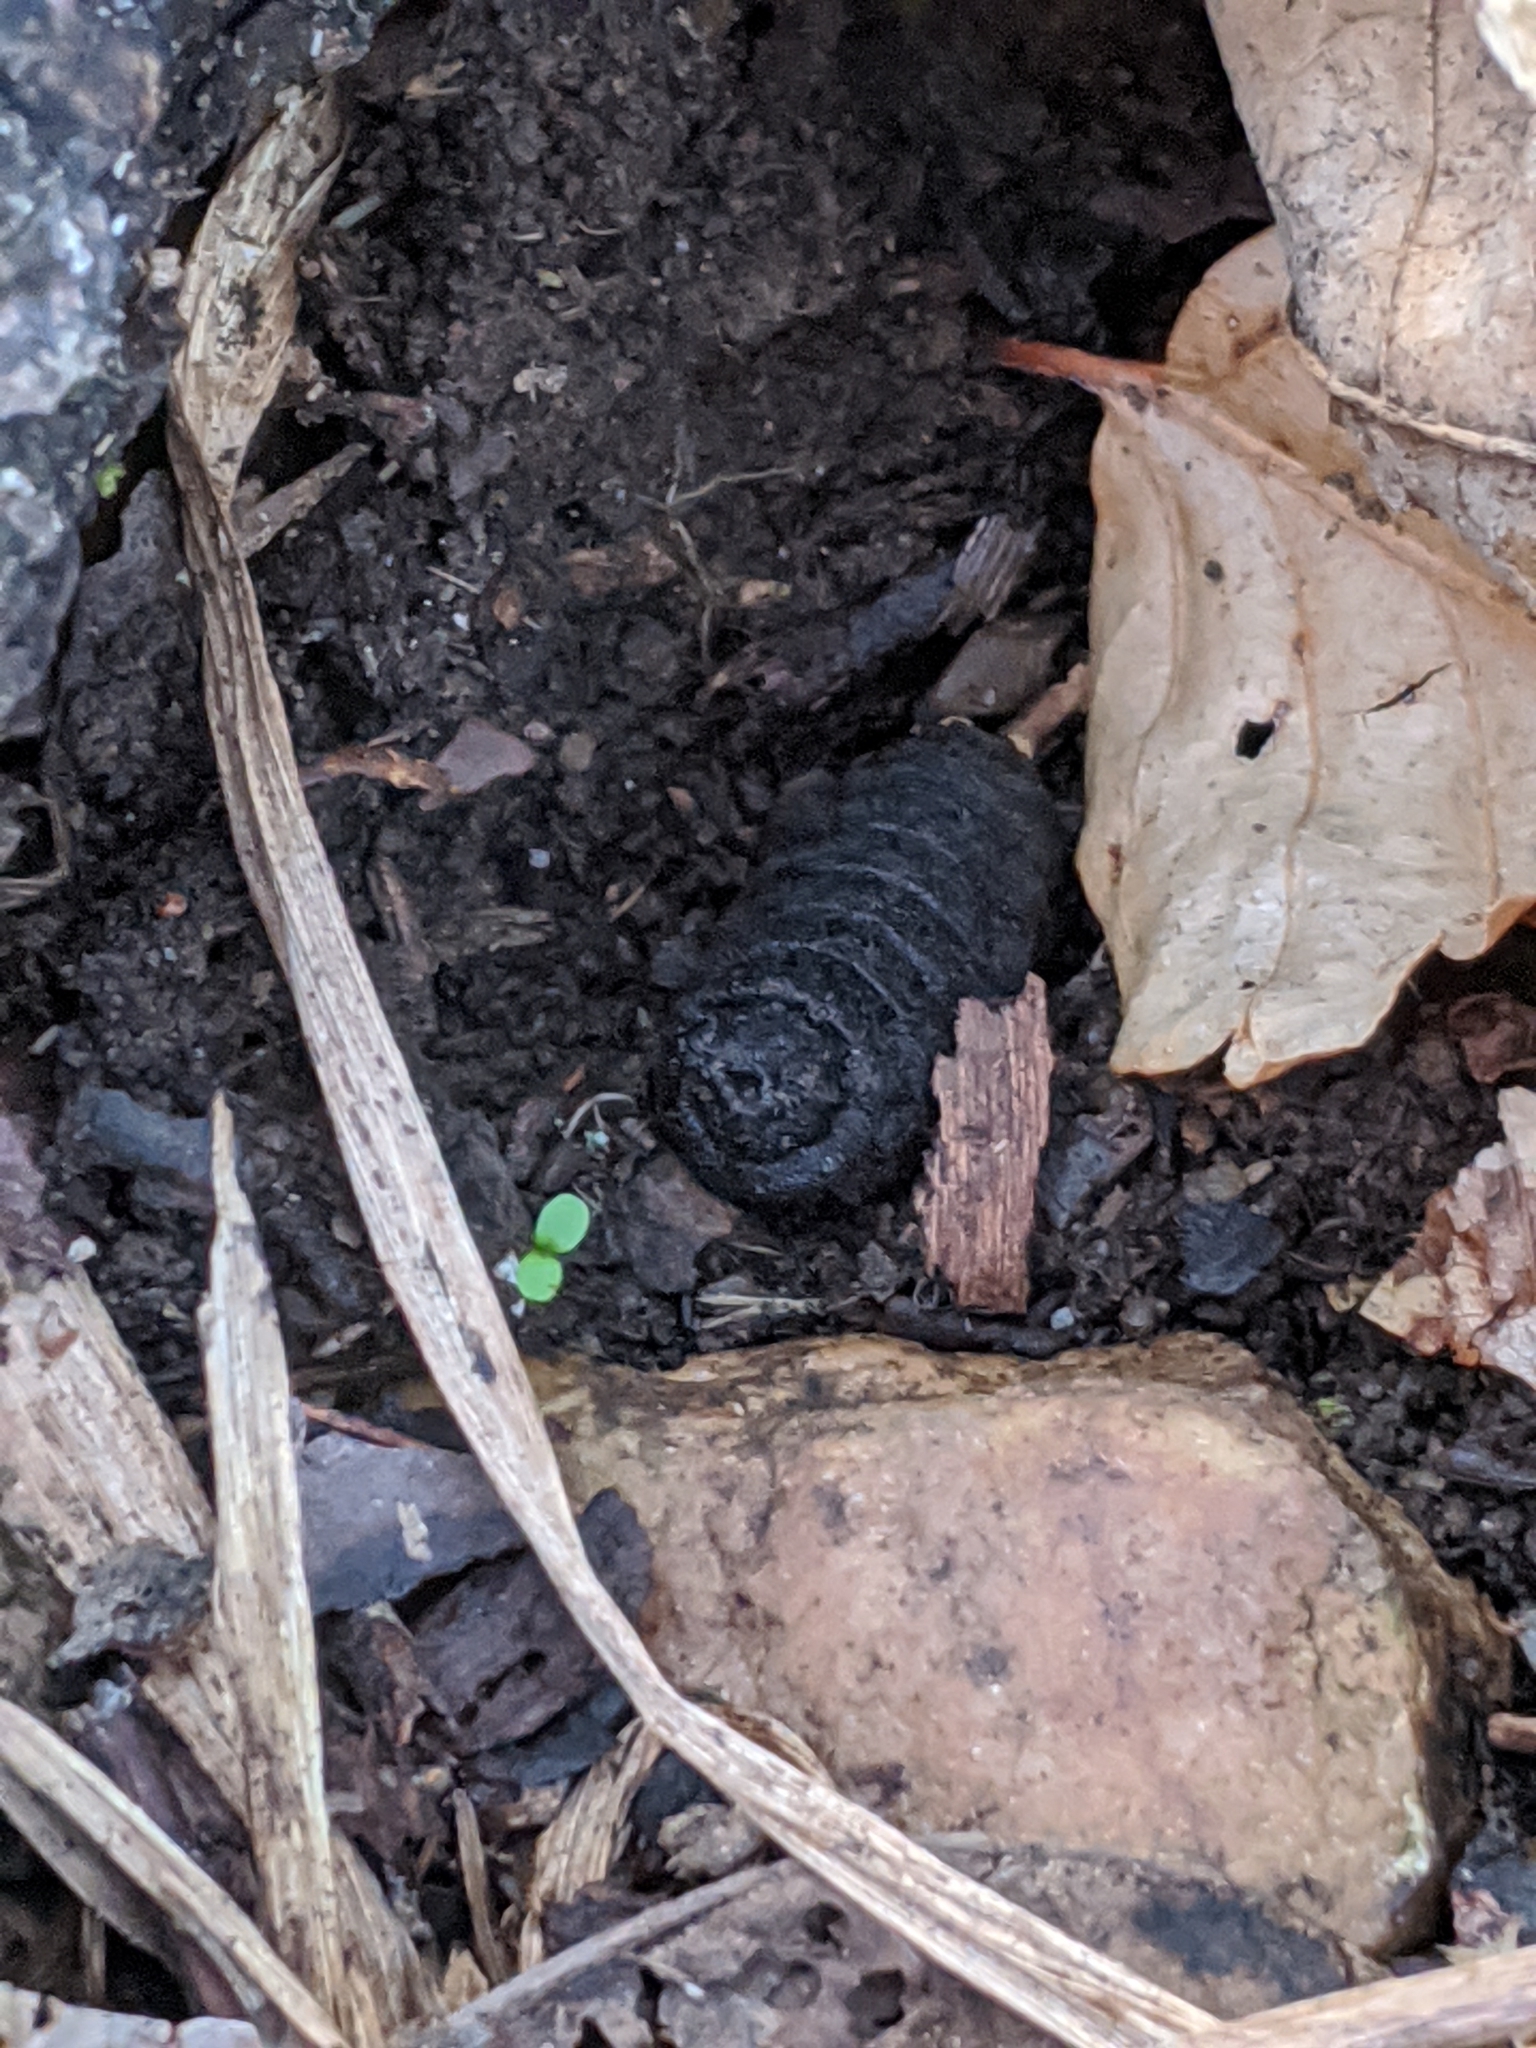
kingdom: Animalia
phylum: Arthropoda
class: Insecta
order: Diptera
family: Oestridae
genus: Cuterebra
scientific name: Cuterebra
